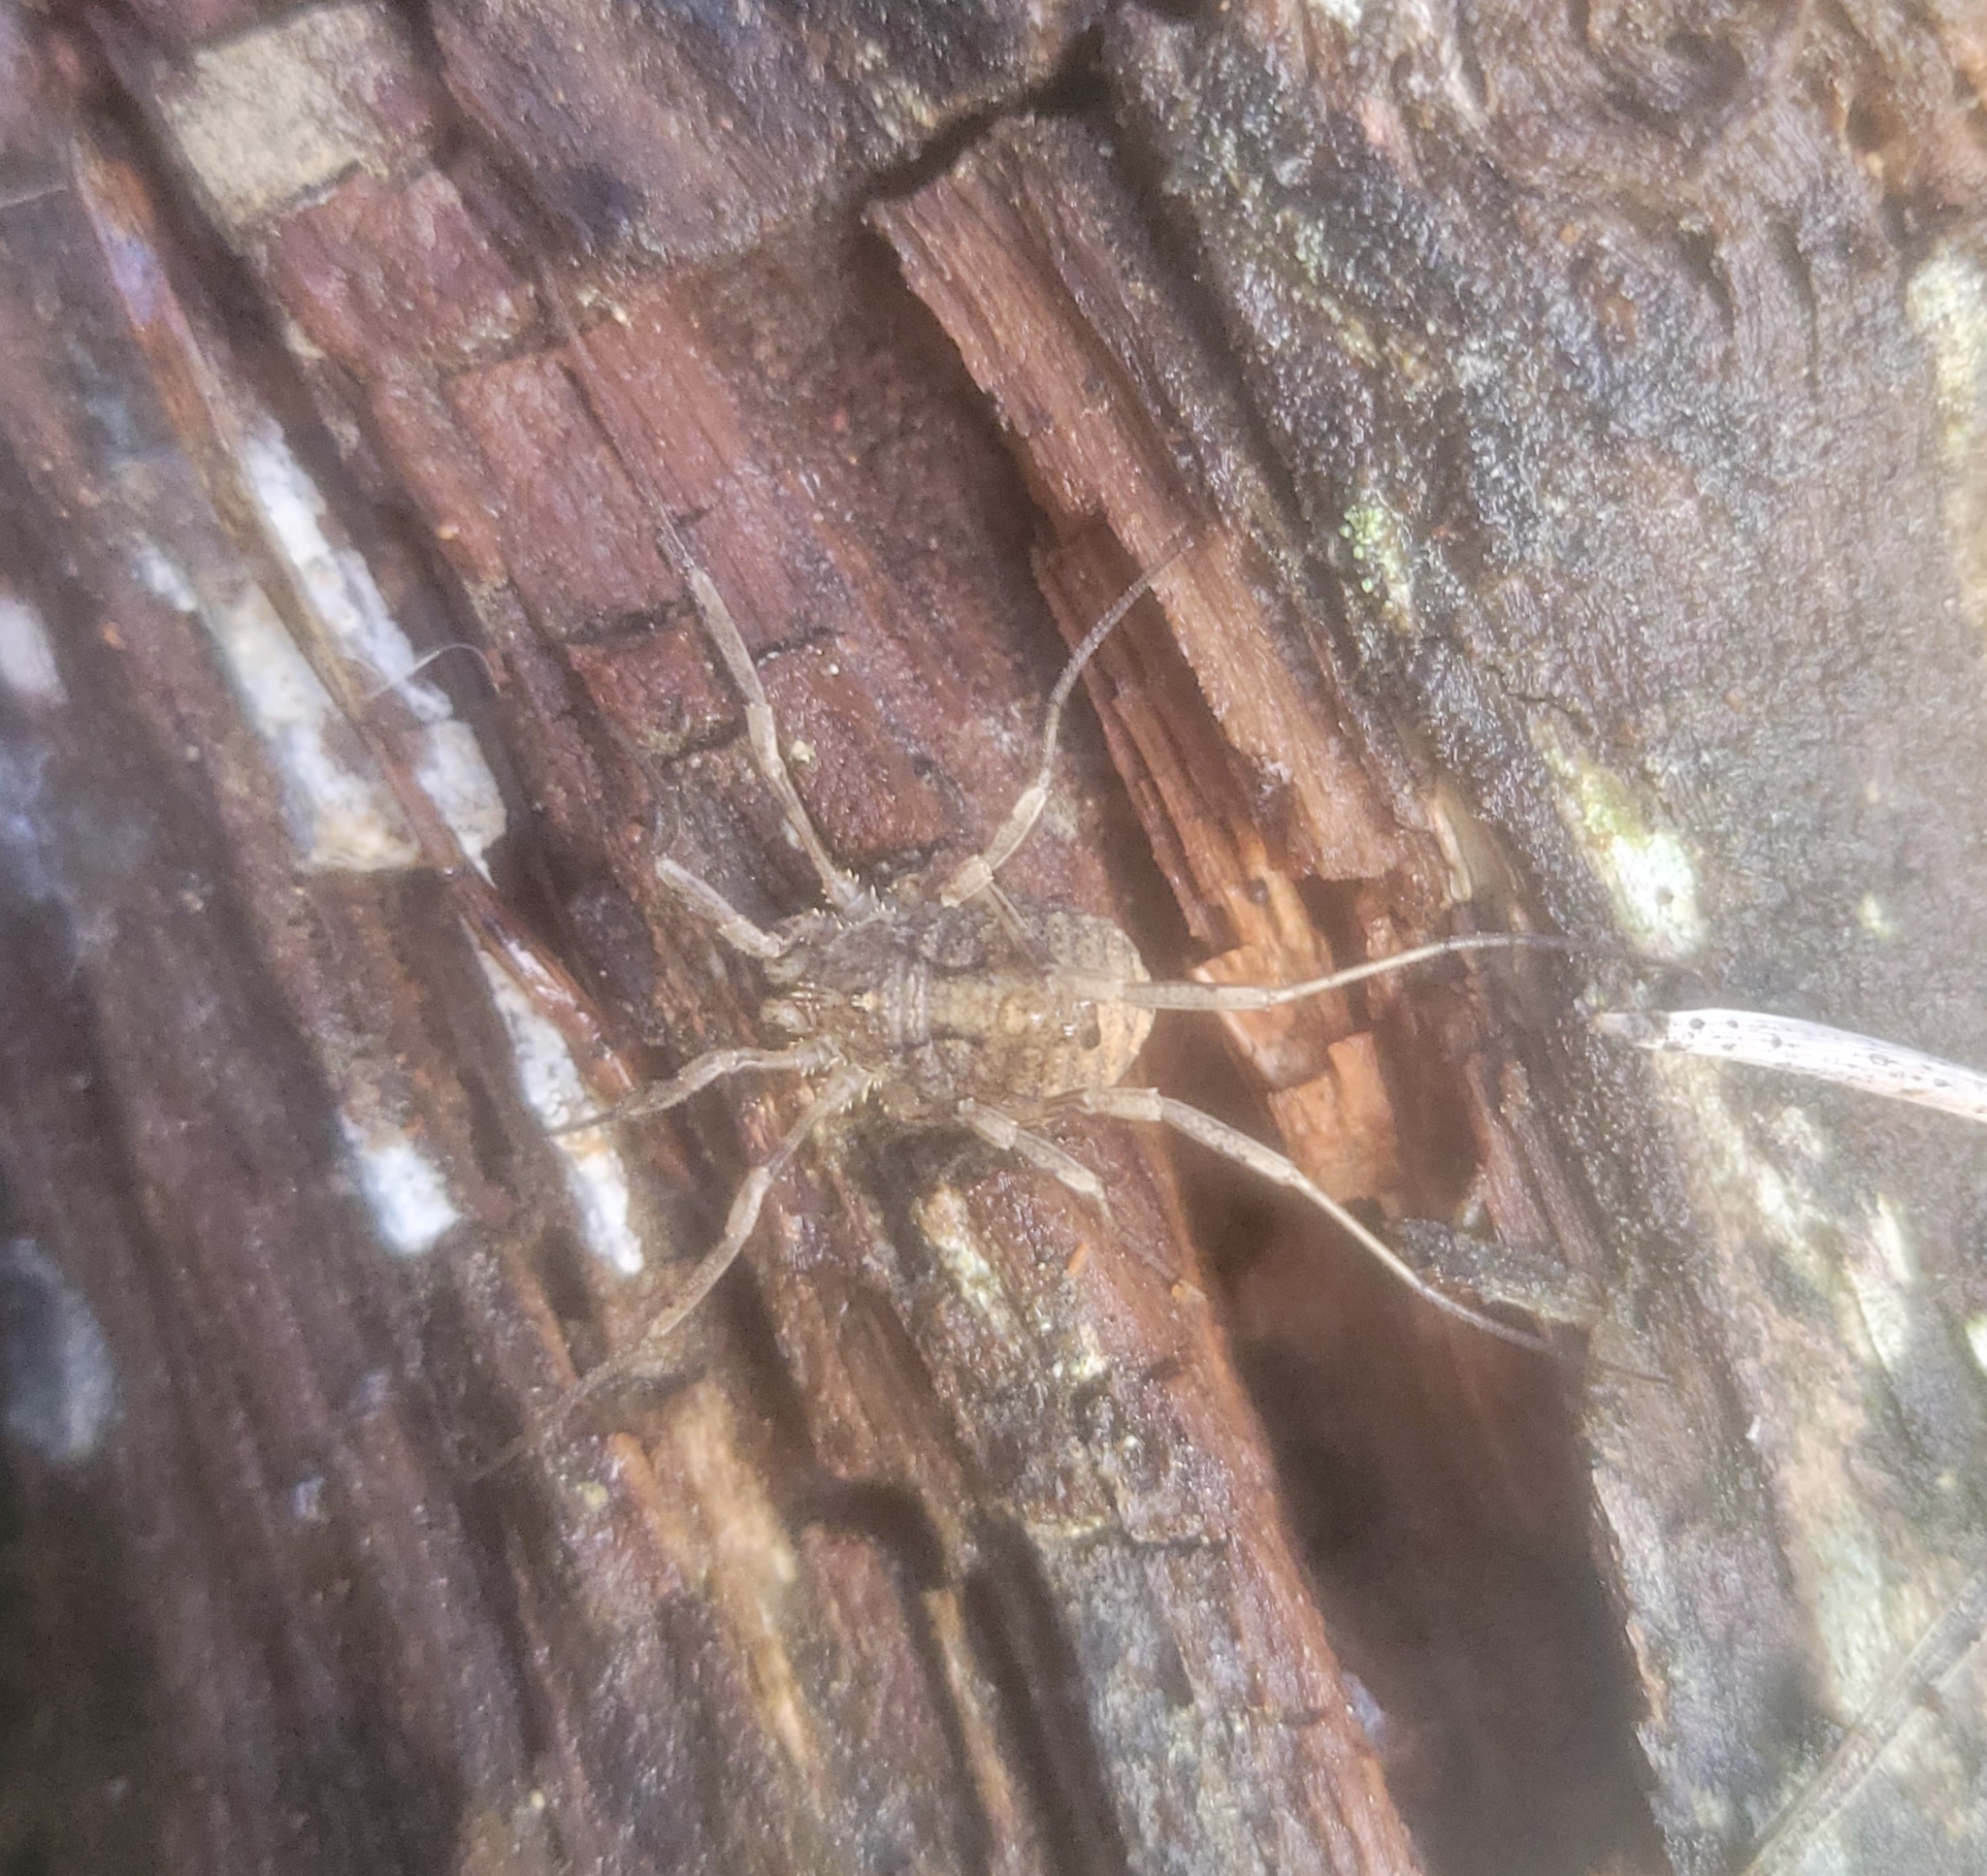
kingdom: Animalia
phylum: Arthropoda
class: Arachnida
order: Opiliones
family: Phalangiidae
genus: Odiellus
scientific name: Odiellus spinosus
